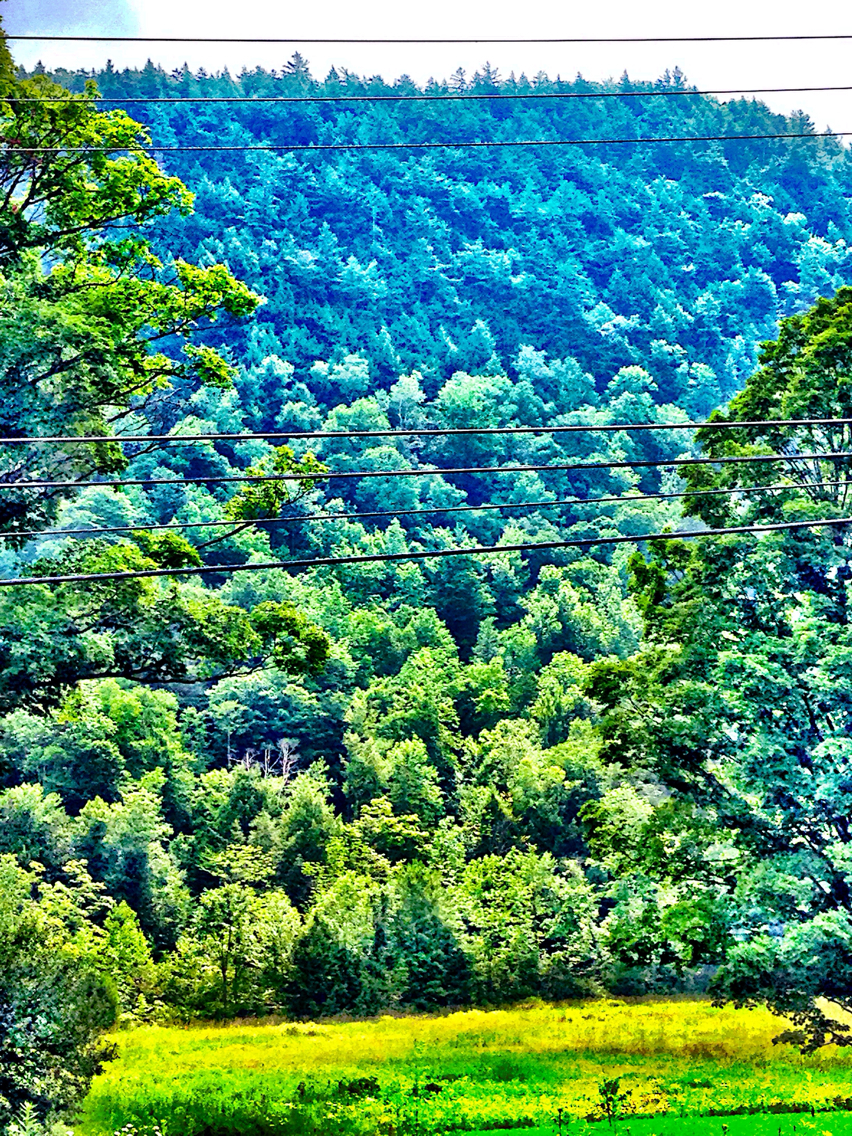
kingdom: Plantae
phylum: Tracheophyta
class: Pinopsida
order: Pinales
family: Pinaceae
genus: Tsuga
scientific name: Tsuga canadensis
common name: Eastern hemlock
